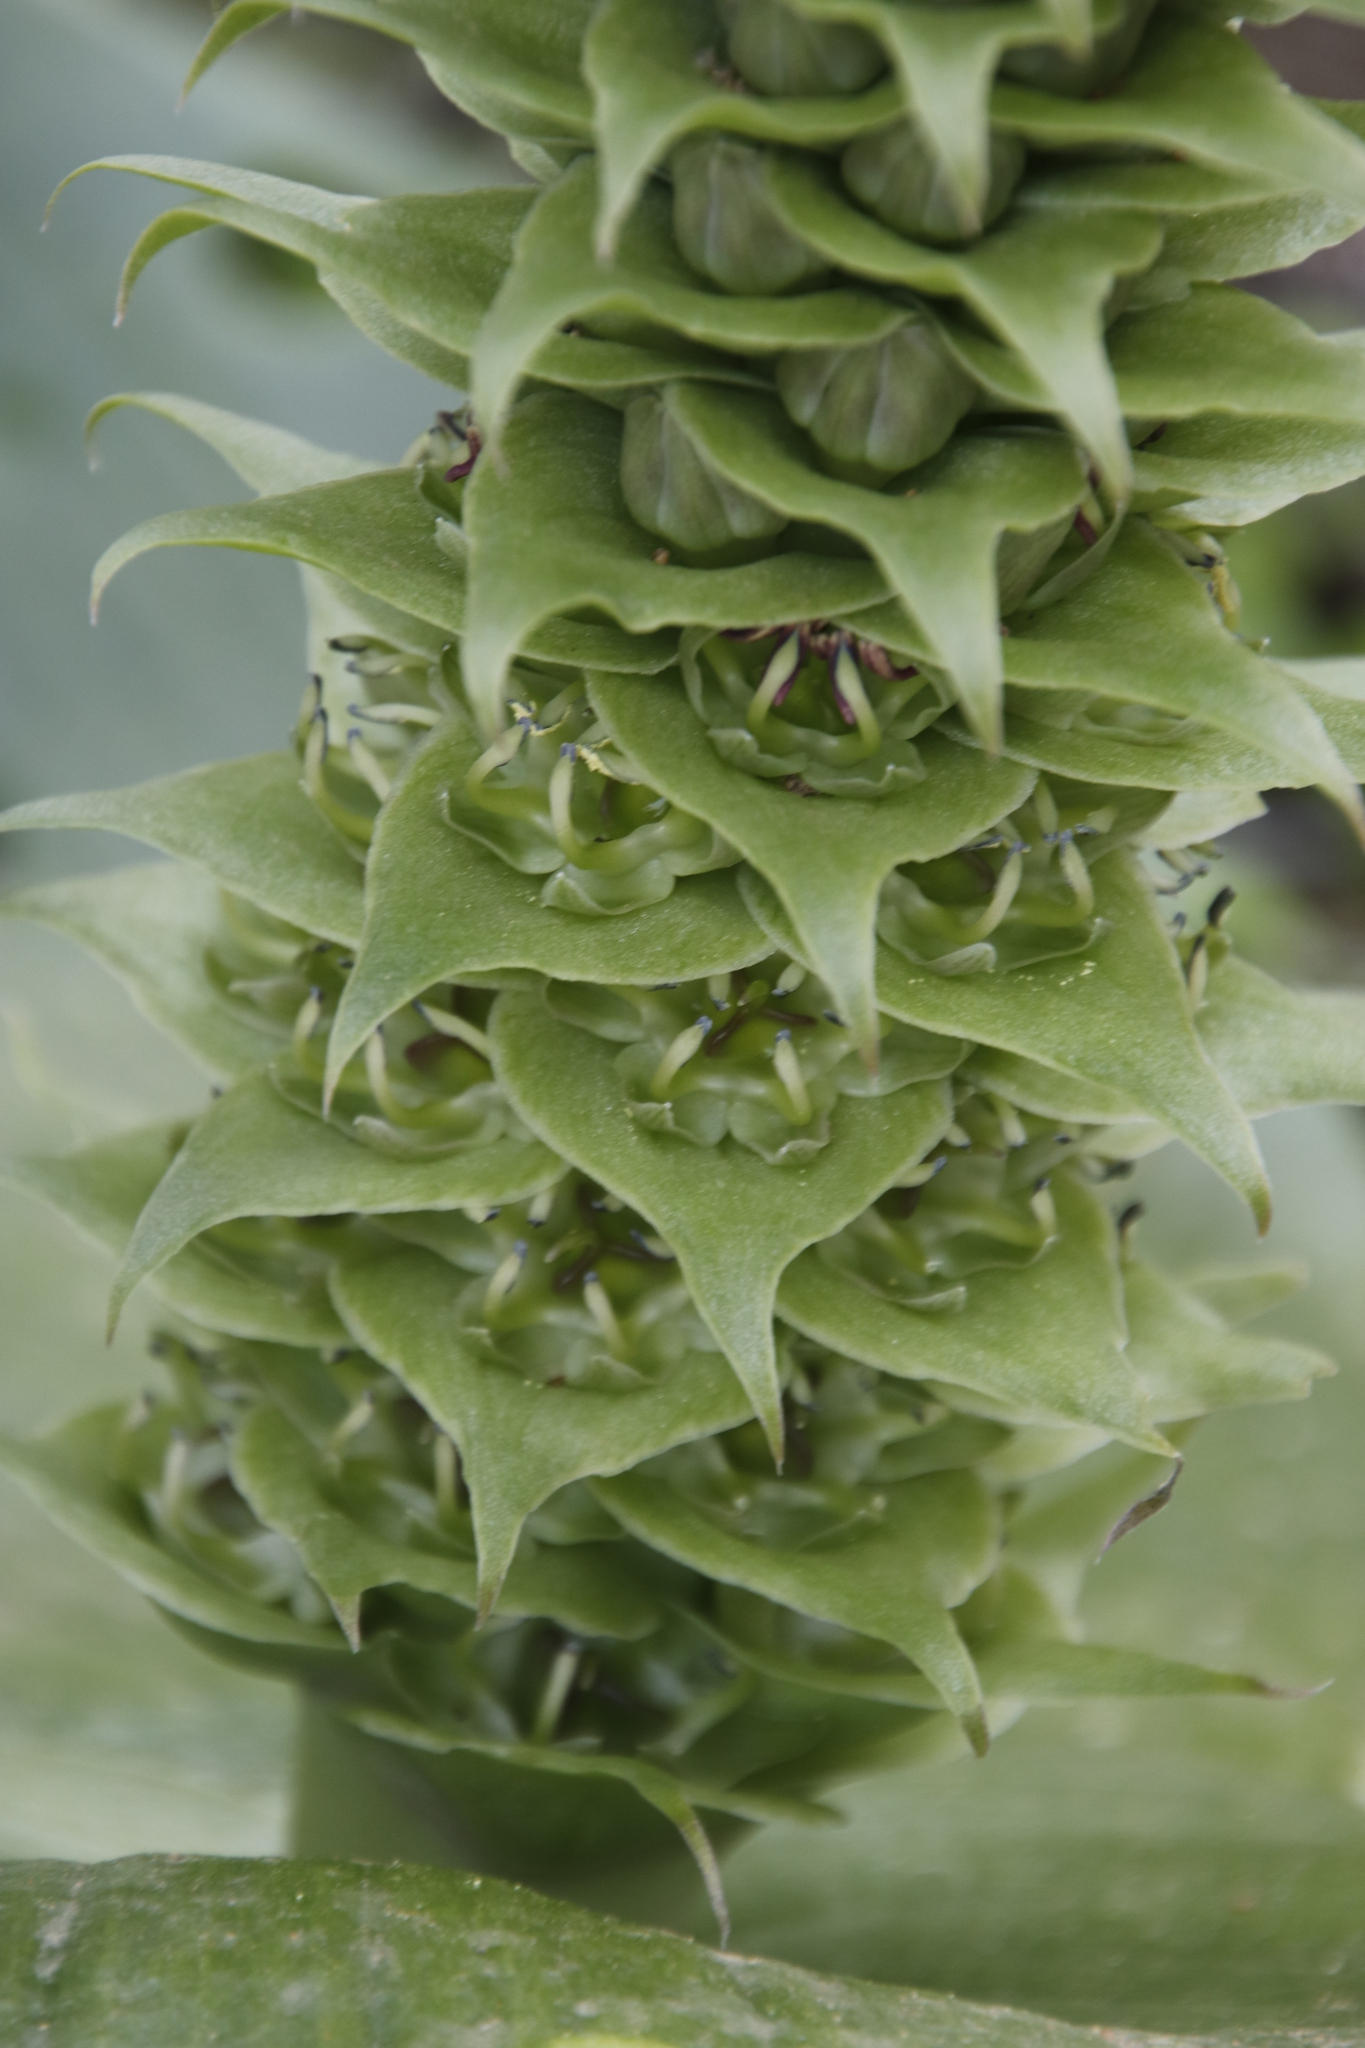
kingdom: Plantae
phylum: Tracheophyta
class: Liliopsida
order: Asparagales
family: Asparagaceae
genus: Massonia
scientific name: Massonia bifolia
